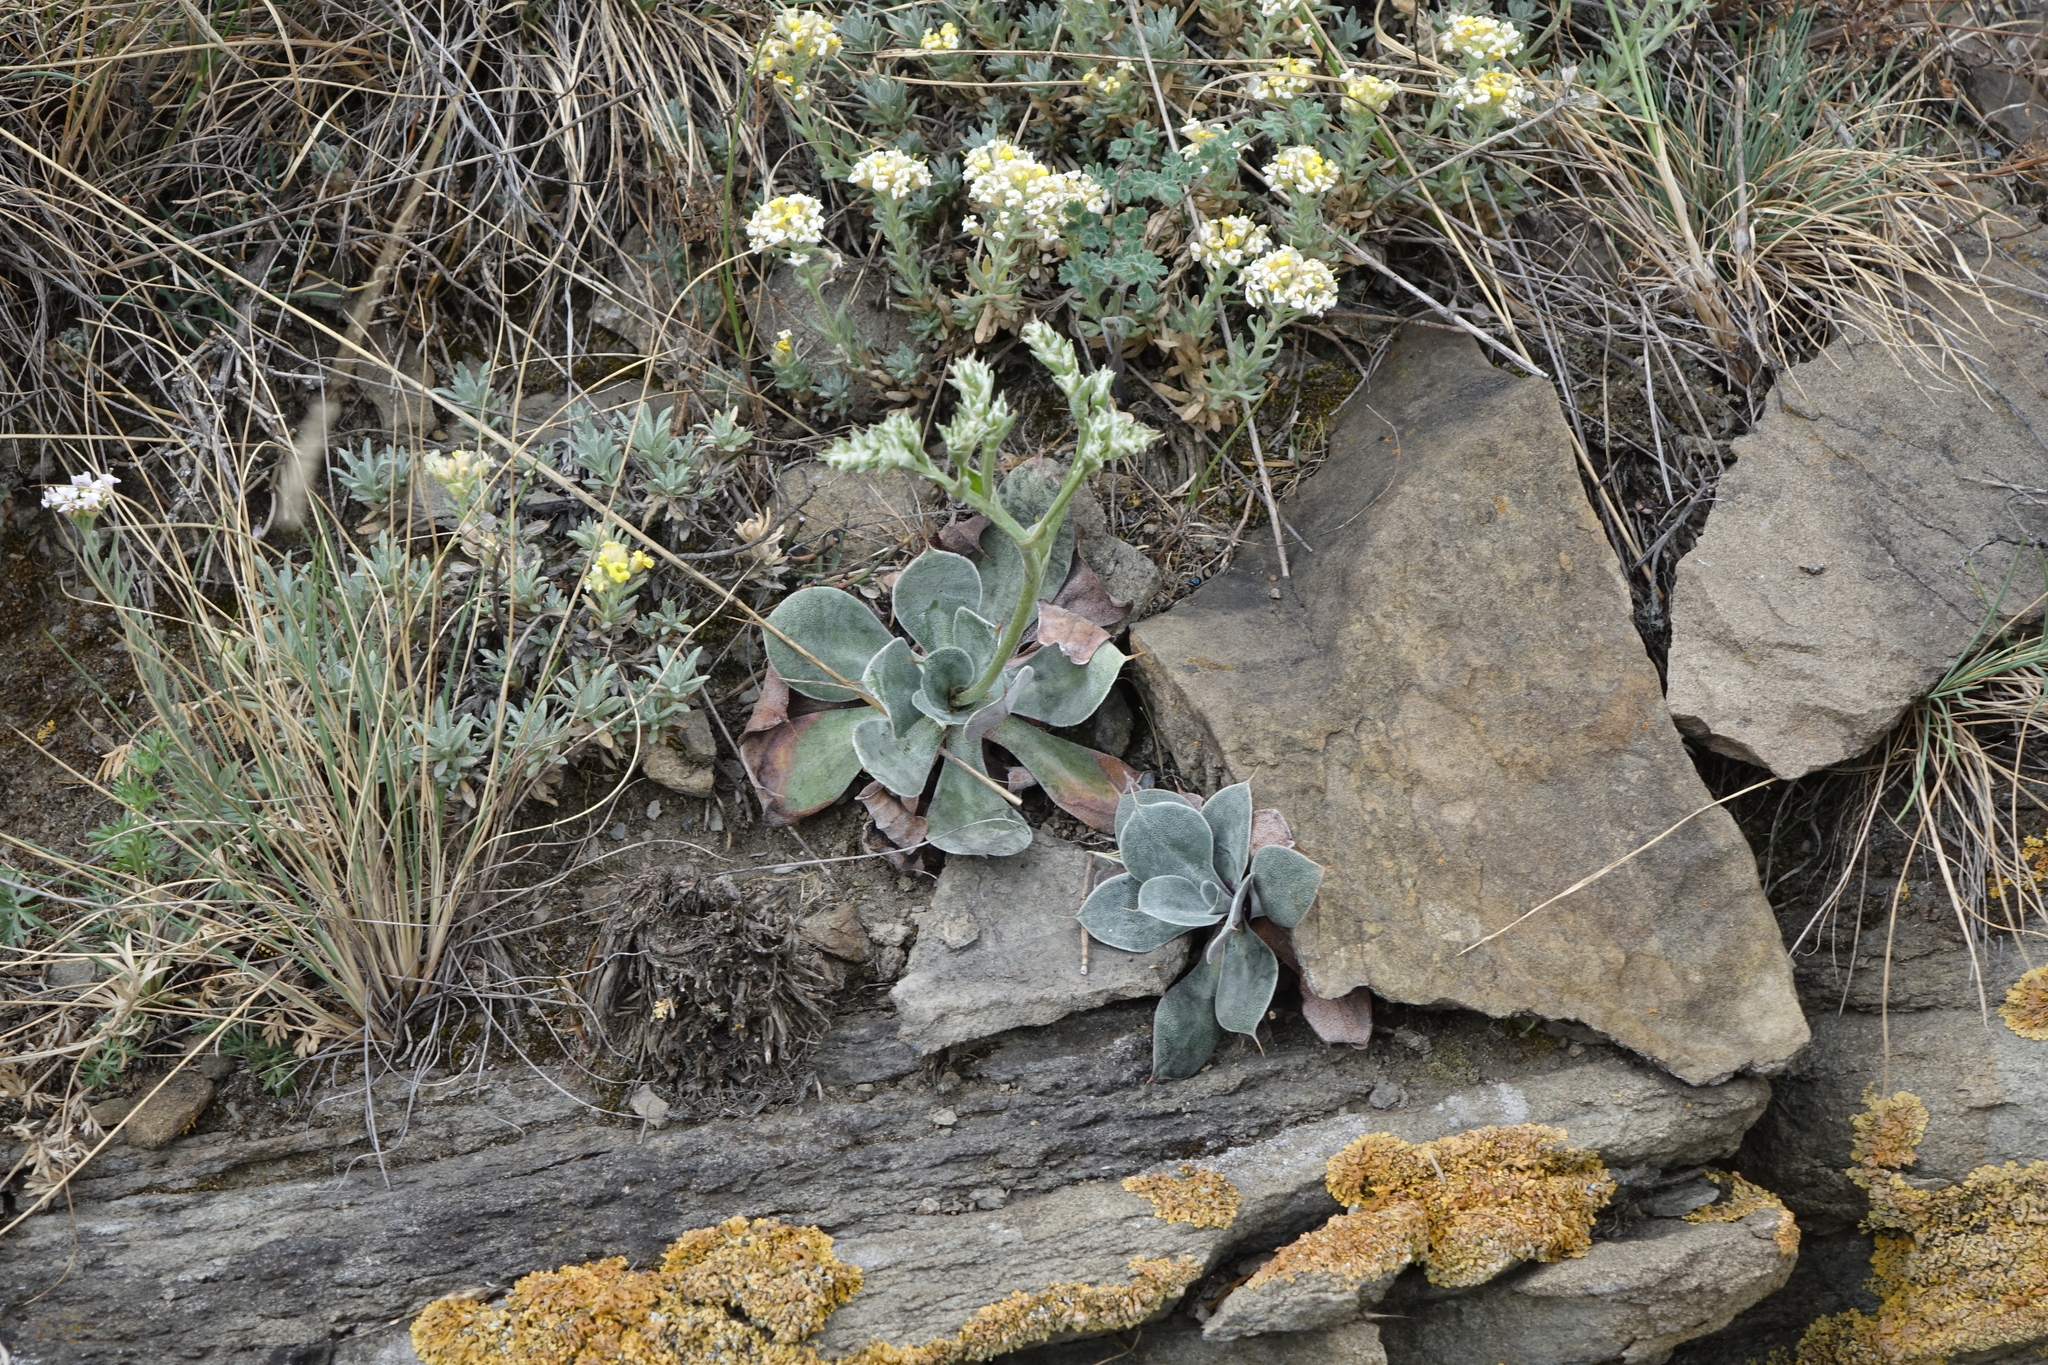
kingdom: Plantae
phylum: Tracheophyta
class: Magnoliopsida
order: Caryophyllales
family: Plumbaginaceae
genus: Goniolimon
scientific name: Goniolimon speciosum
